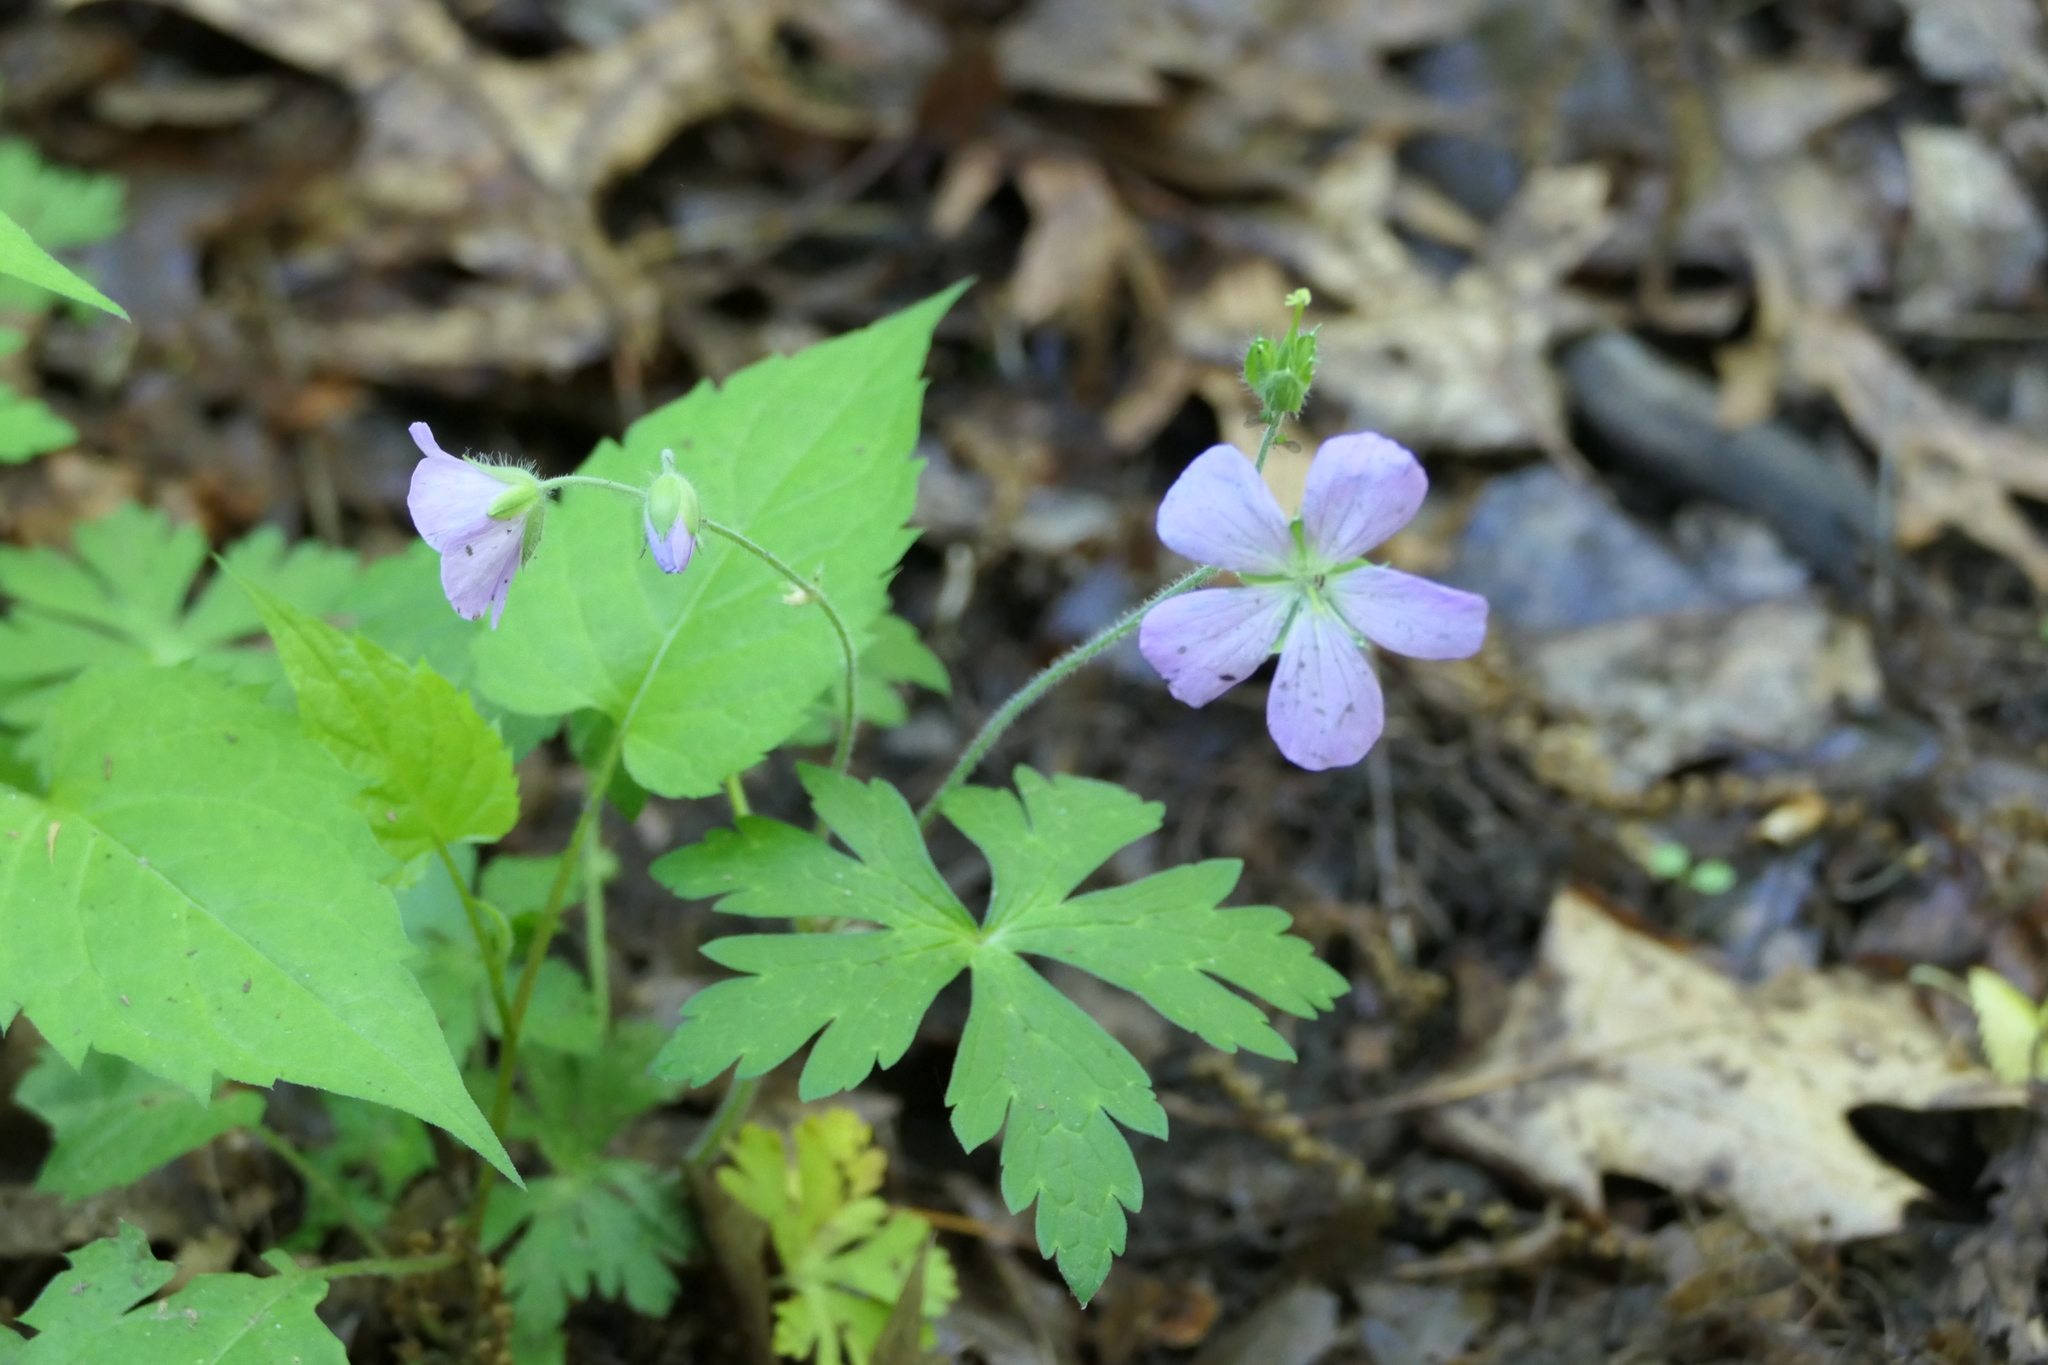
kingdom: Plantae
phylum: Tracheophyta
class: Magnoliopsida
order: Geraniales
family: Geraniaceae
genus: Geranium
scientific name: Geranium maculatum
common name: Spotted geranium
